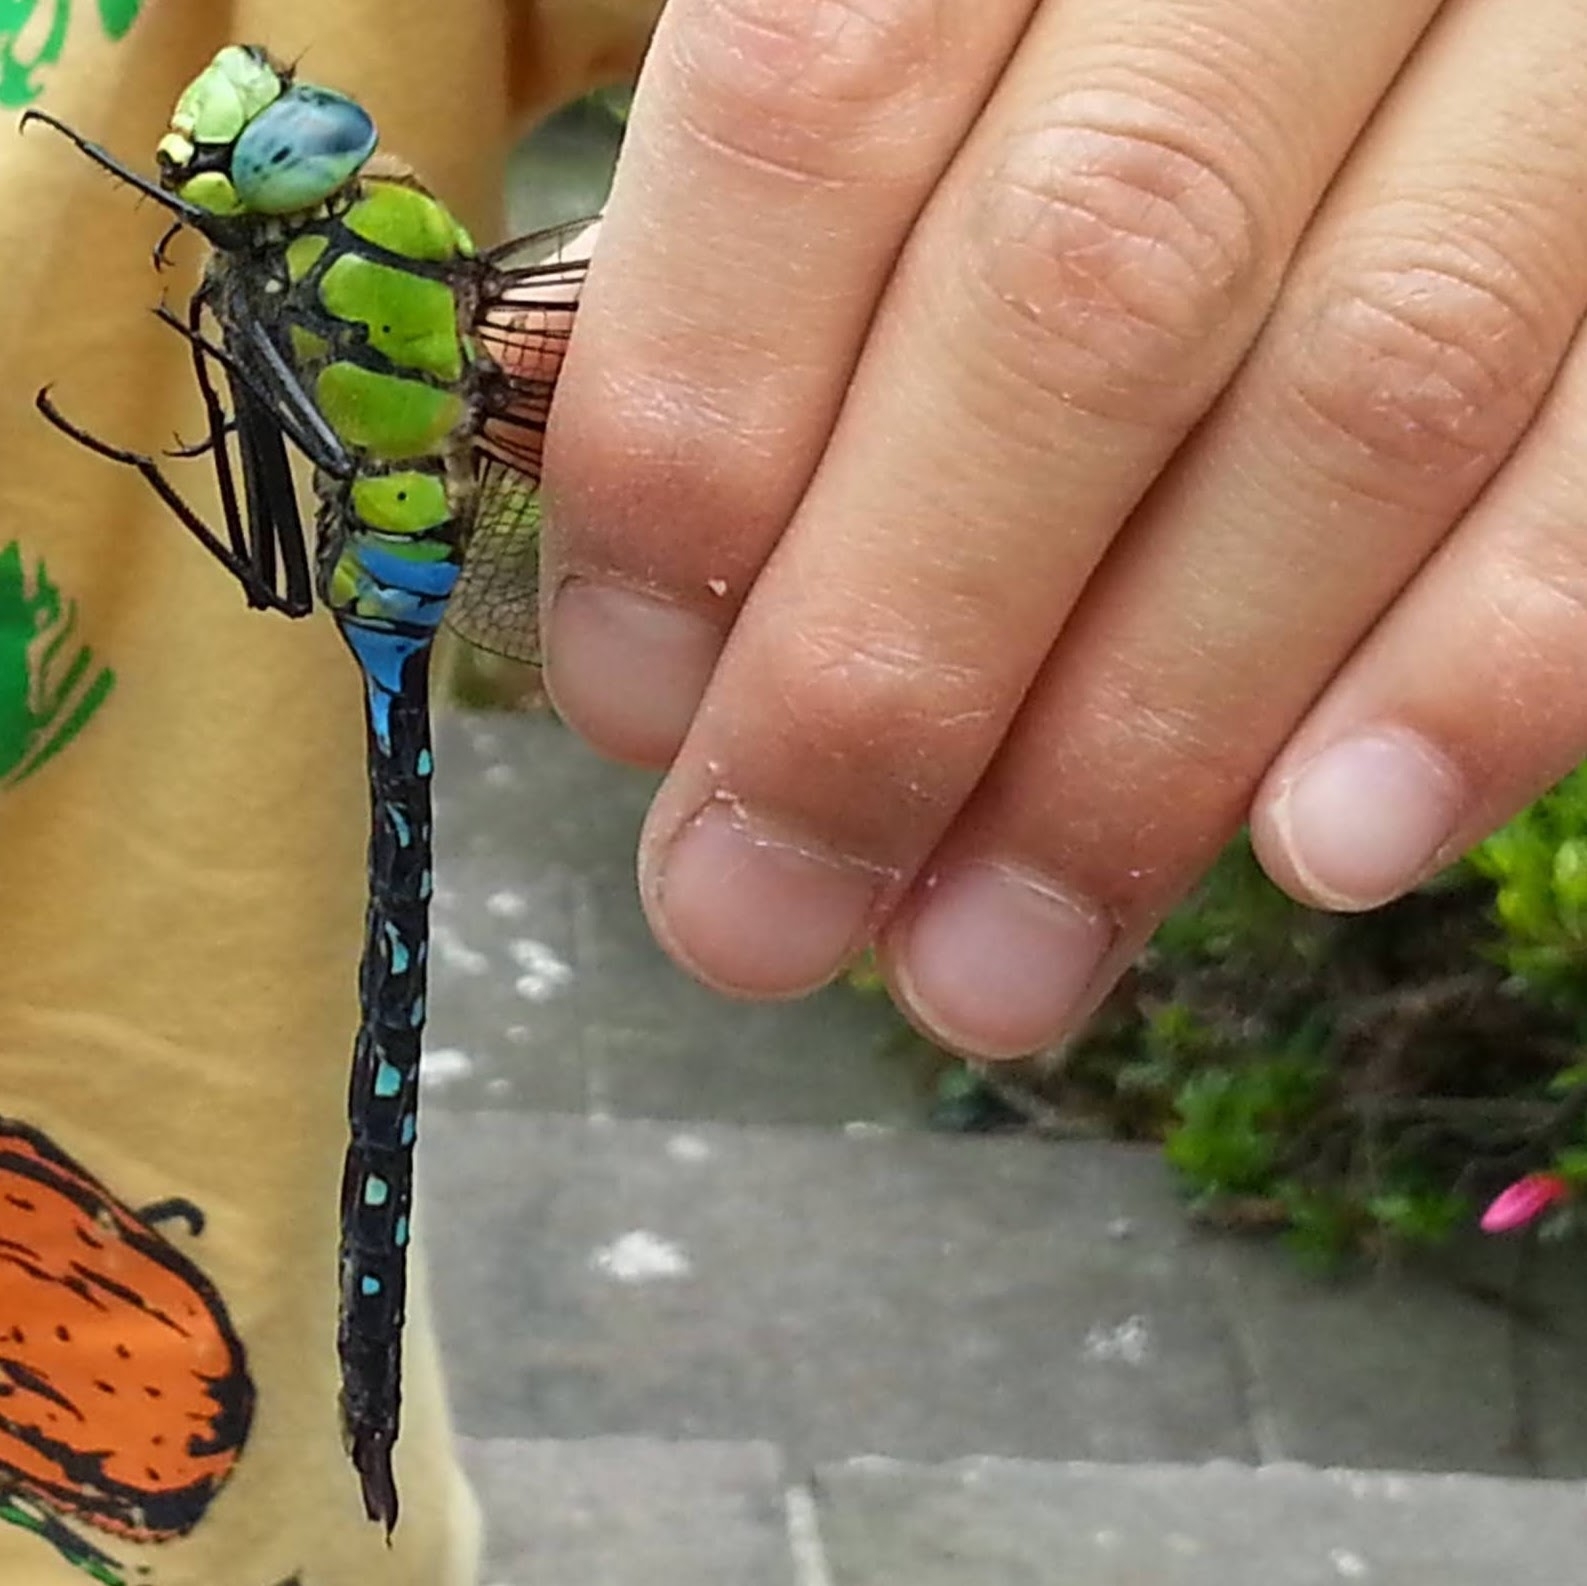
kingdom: Animalia
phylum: Arthropoda
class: Insecta
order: Odonata
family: Aeshnidae
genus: Anax
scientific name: Anax nigrofasciatus
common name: Blue-spotted emperor
